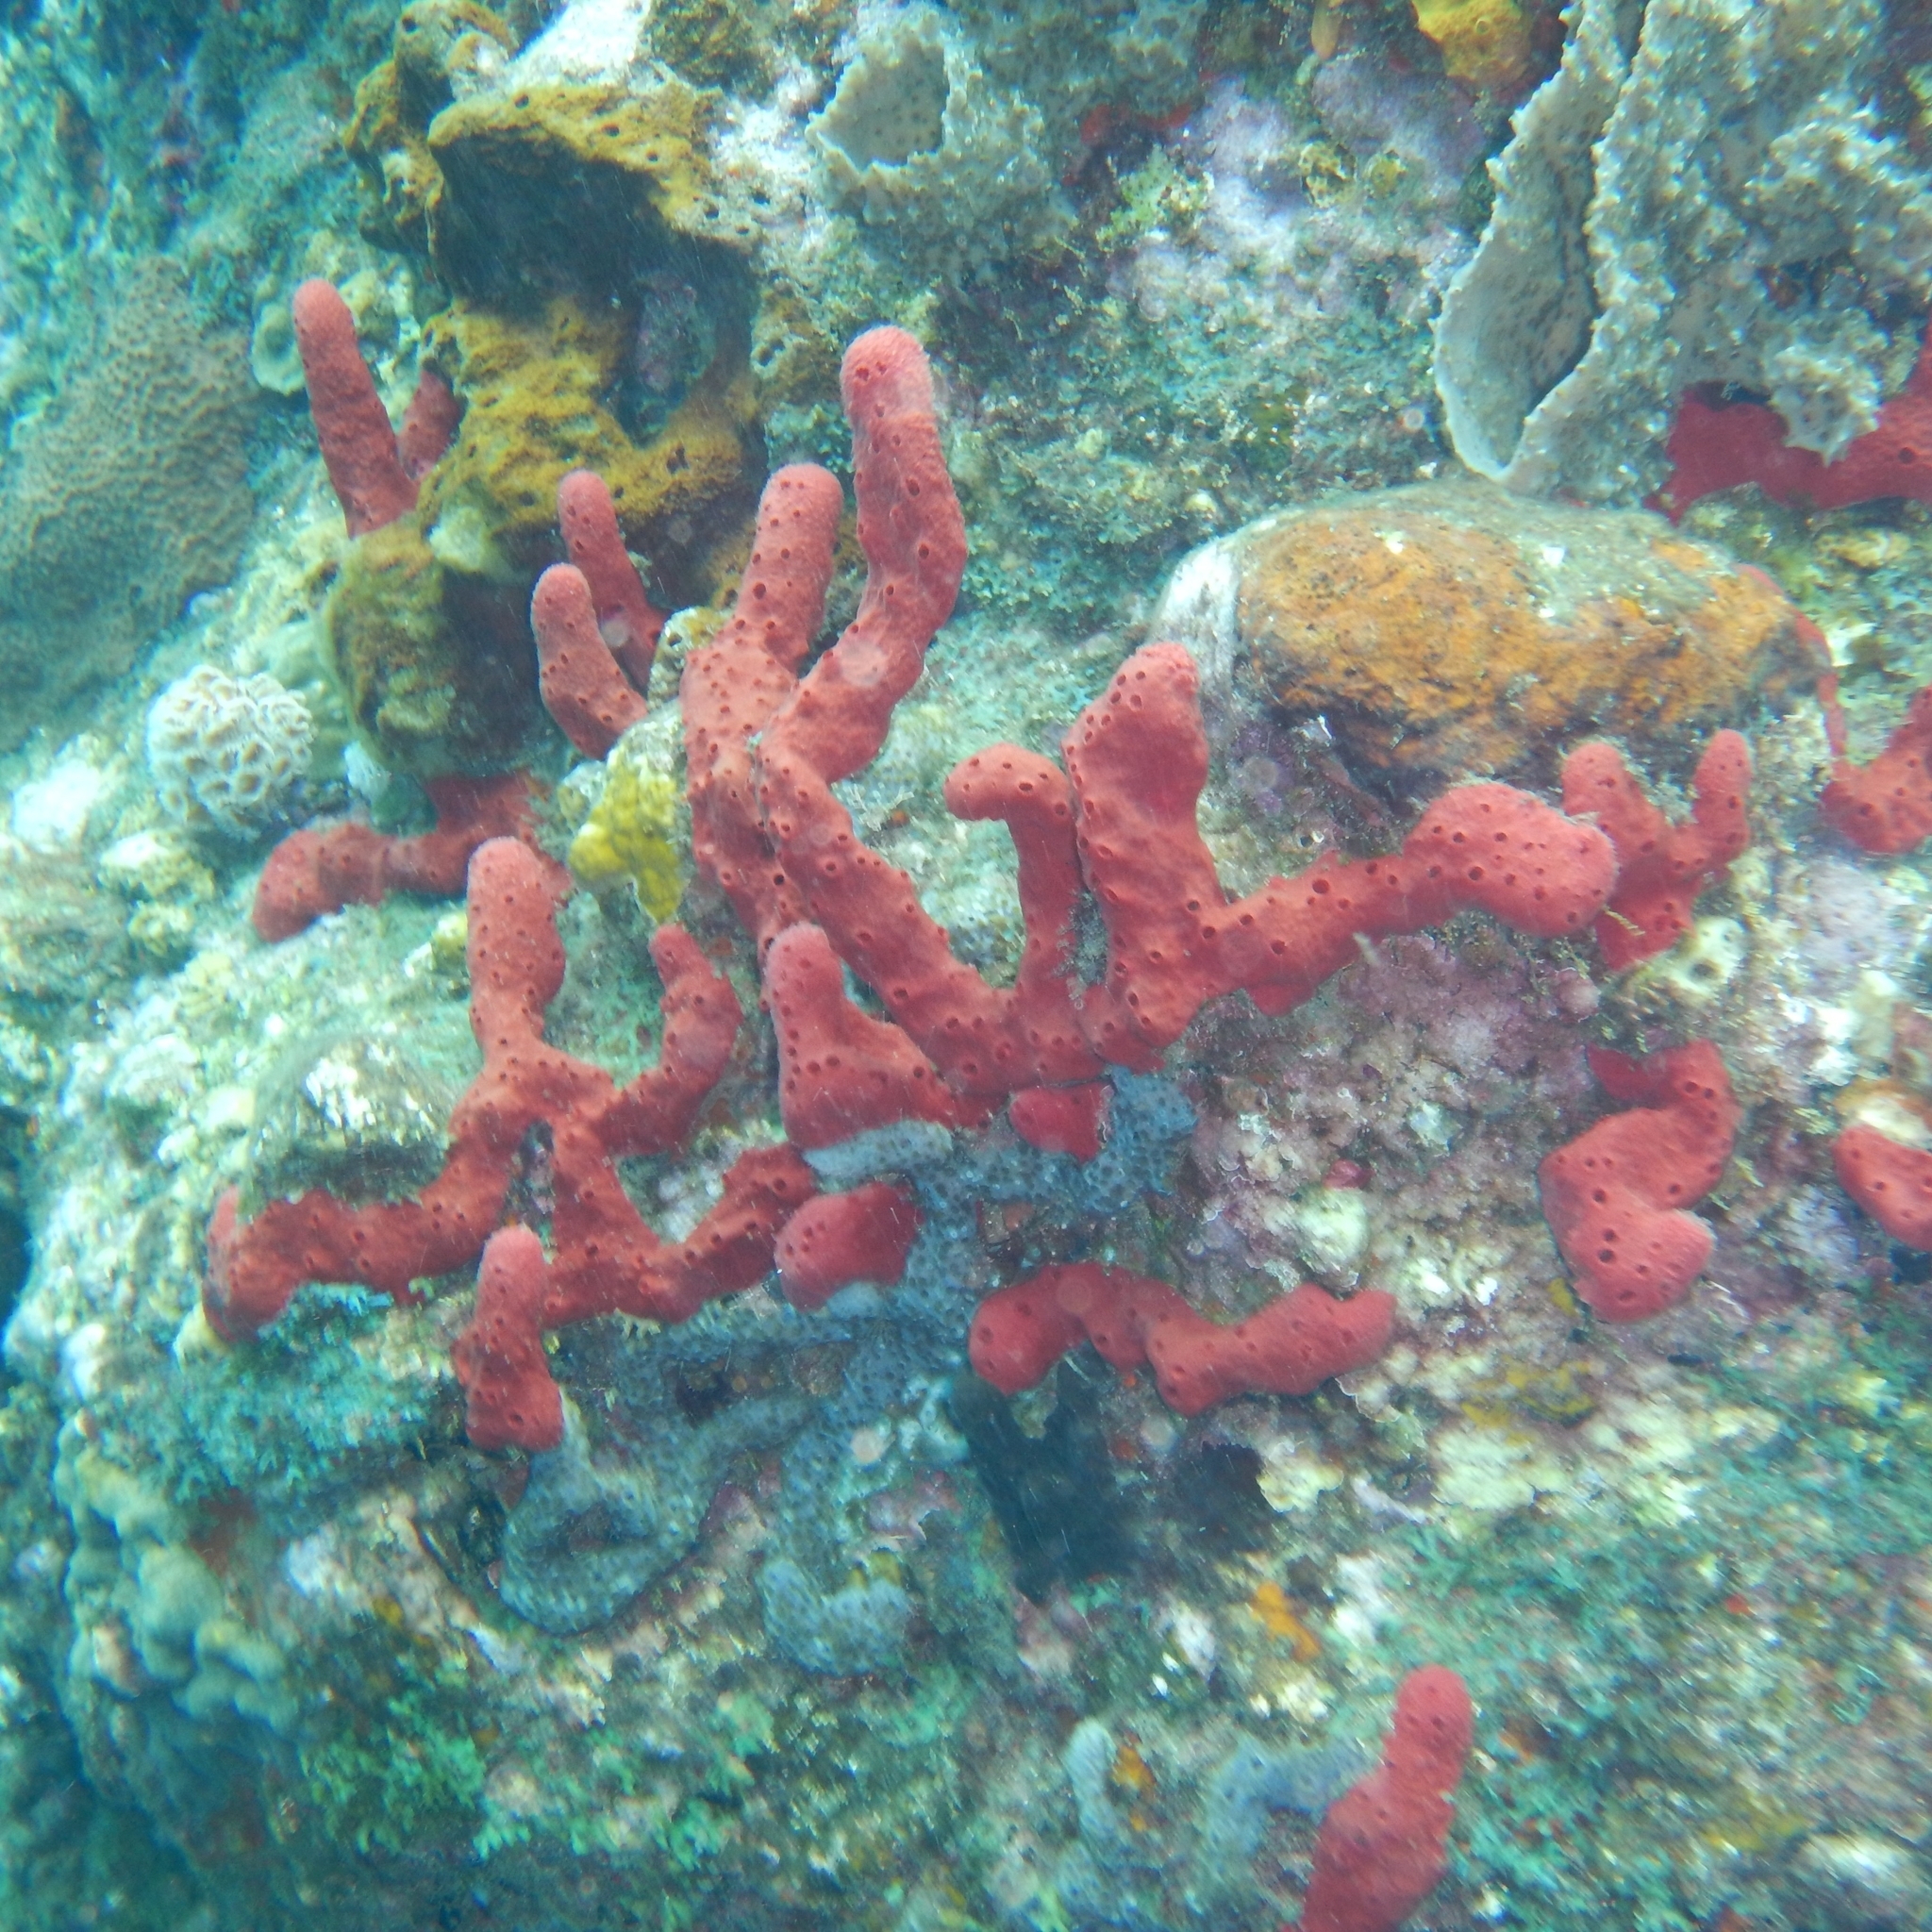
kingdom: Animalia
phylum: Porifera
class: Demospongiae
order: Haplosclerida
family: Niphatidae
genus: Amphimedon
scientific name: Amphimedon compressa
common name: Red sponge
